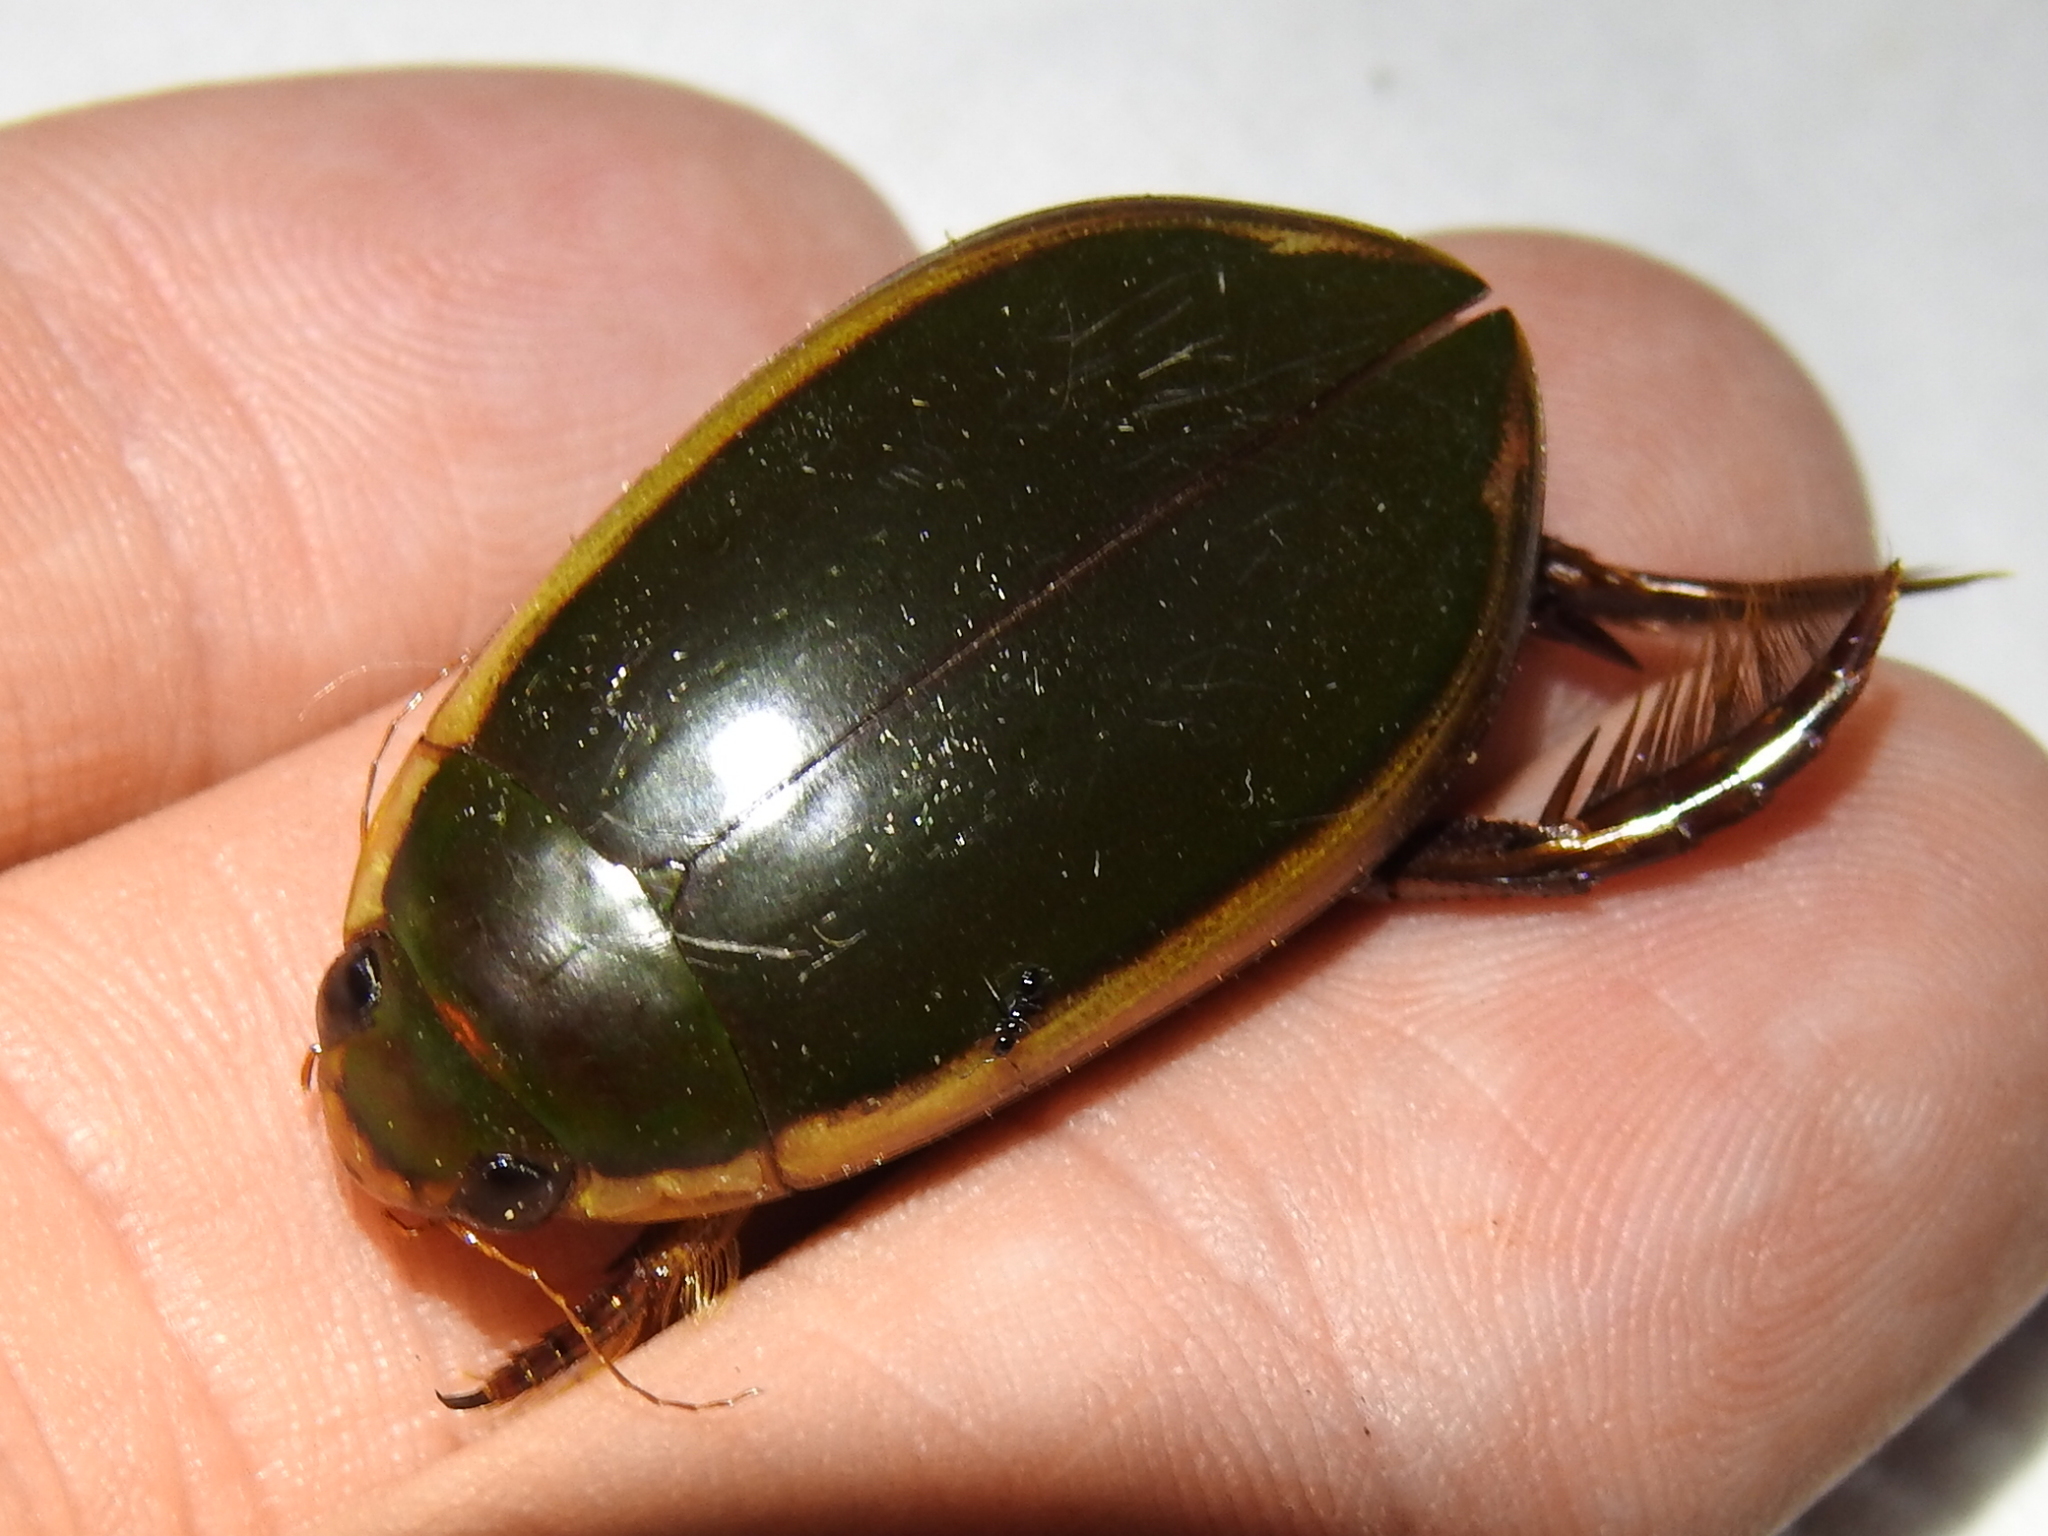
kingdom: Animalia
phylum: Arthropoda
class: Insecta
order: Coleoptera
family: Dytiscidae
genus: Cybister
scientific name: Cybister fimbriolatus
